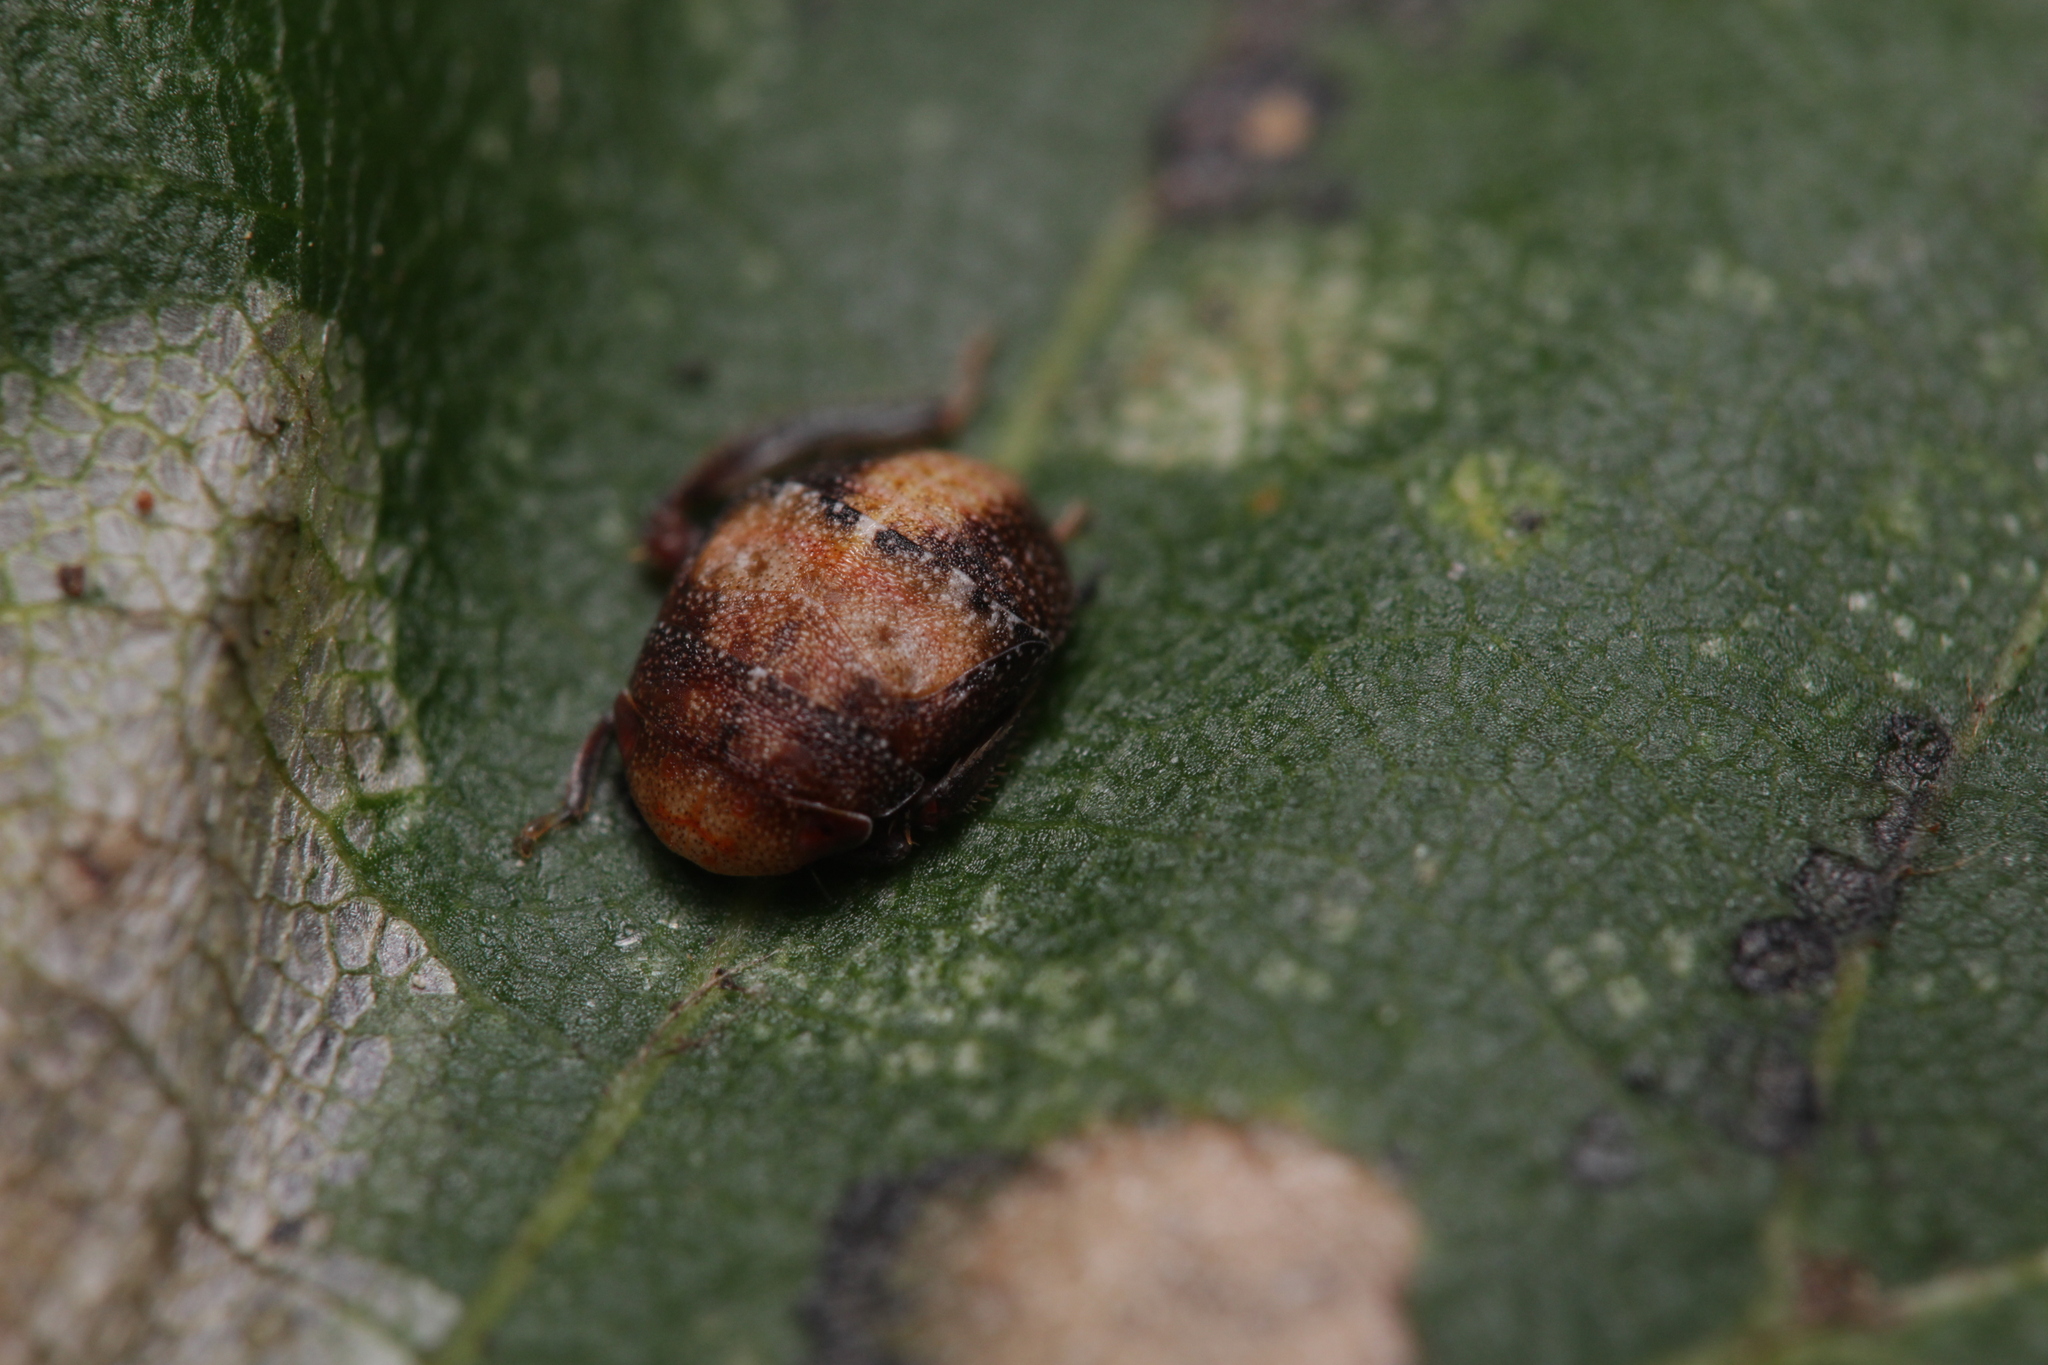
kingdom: Animalia
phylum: Arthropoda
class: Insecta
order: Hemiptera
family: Cicadellidae
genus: Penthimia
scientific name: Penthimia nigra
